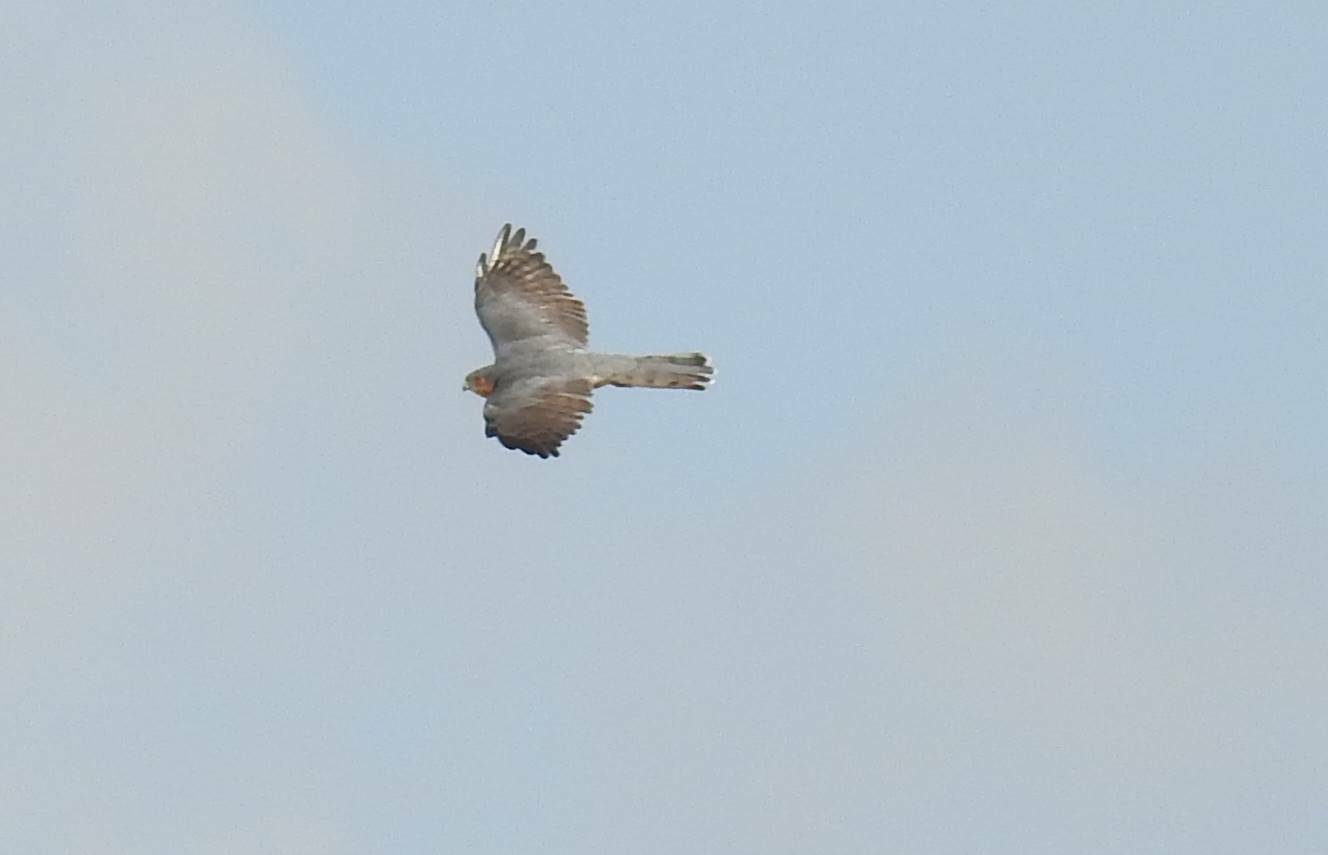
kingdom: Animalia
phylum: Chordata
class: Aves
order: Accipitriformes
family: Accipitridae
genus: Accipiter
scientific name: Accipiter nisus
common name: Eurasian sparrowhawk
